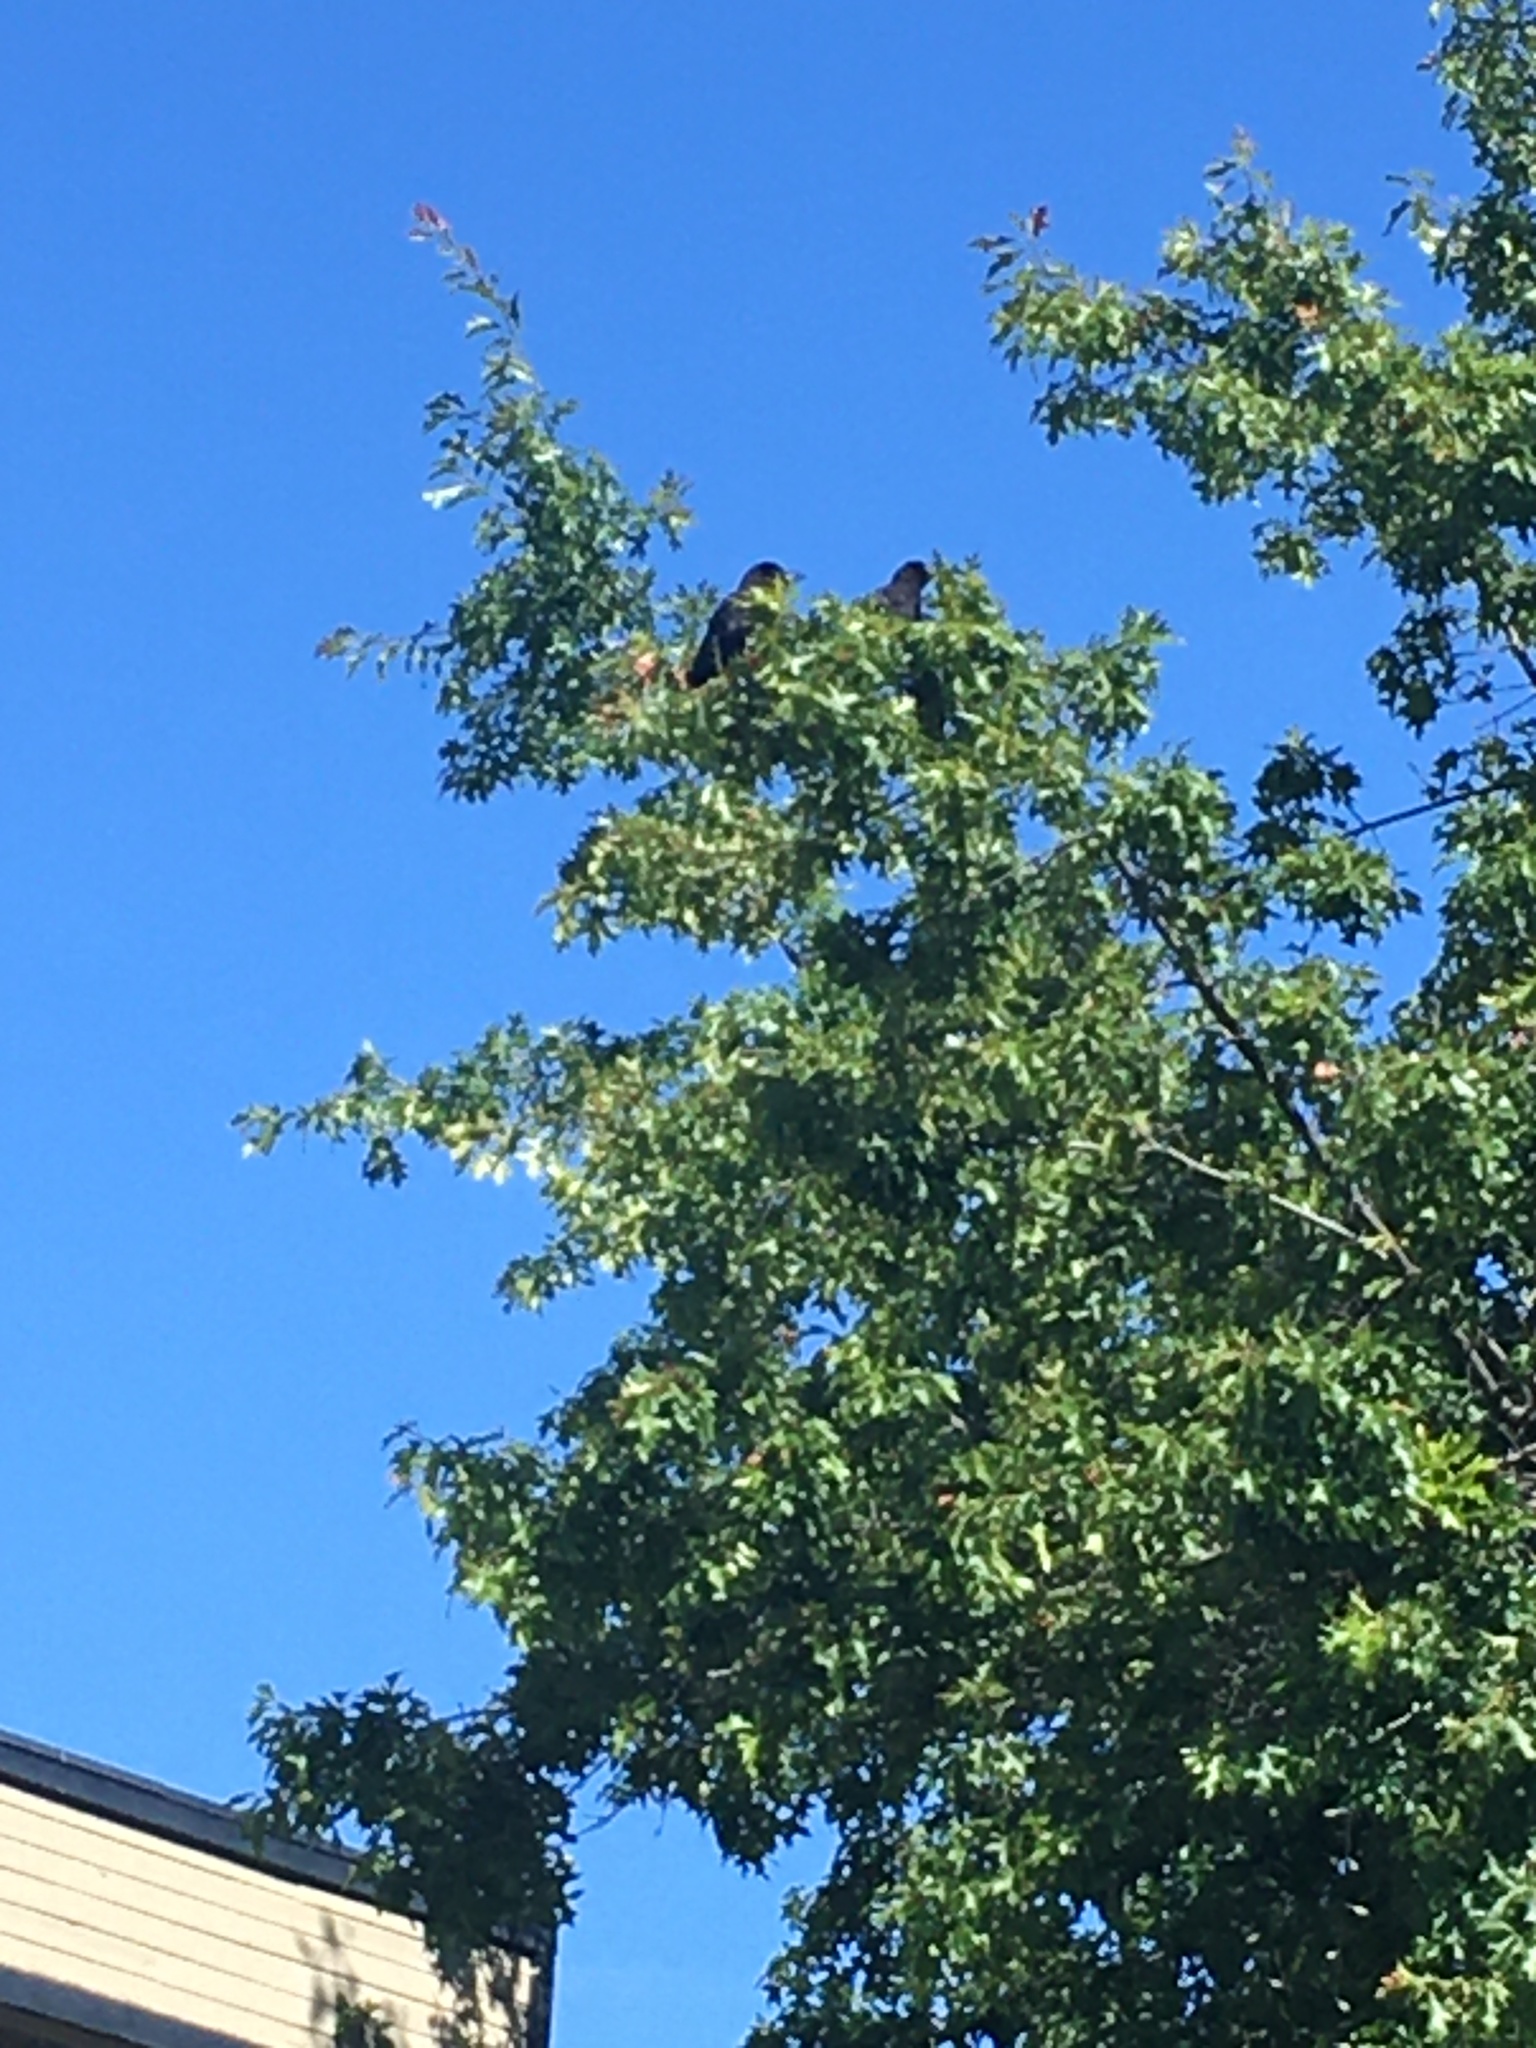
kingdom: Animalia
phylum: Chordata
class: Aves
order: Passeriformes
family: Corvidae
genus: Corvus
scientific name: Corvus brachyrhynchos
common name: American crow
